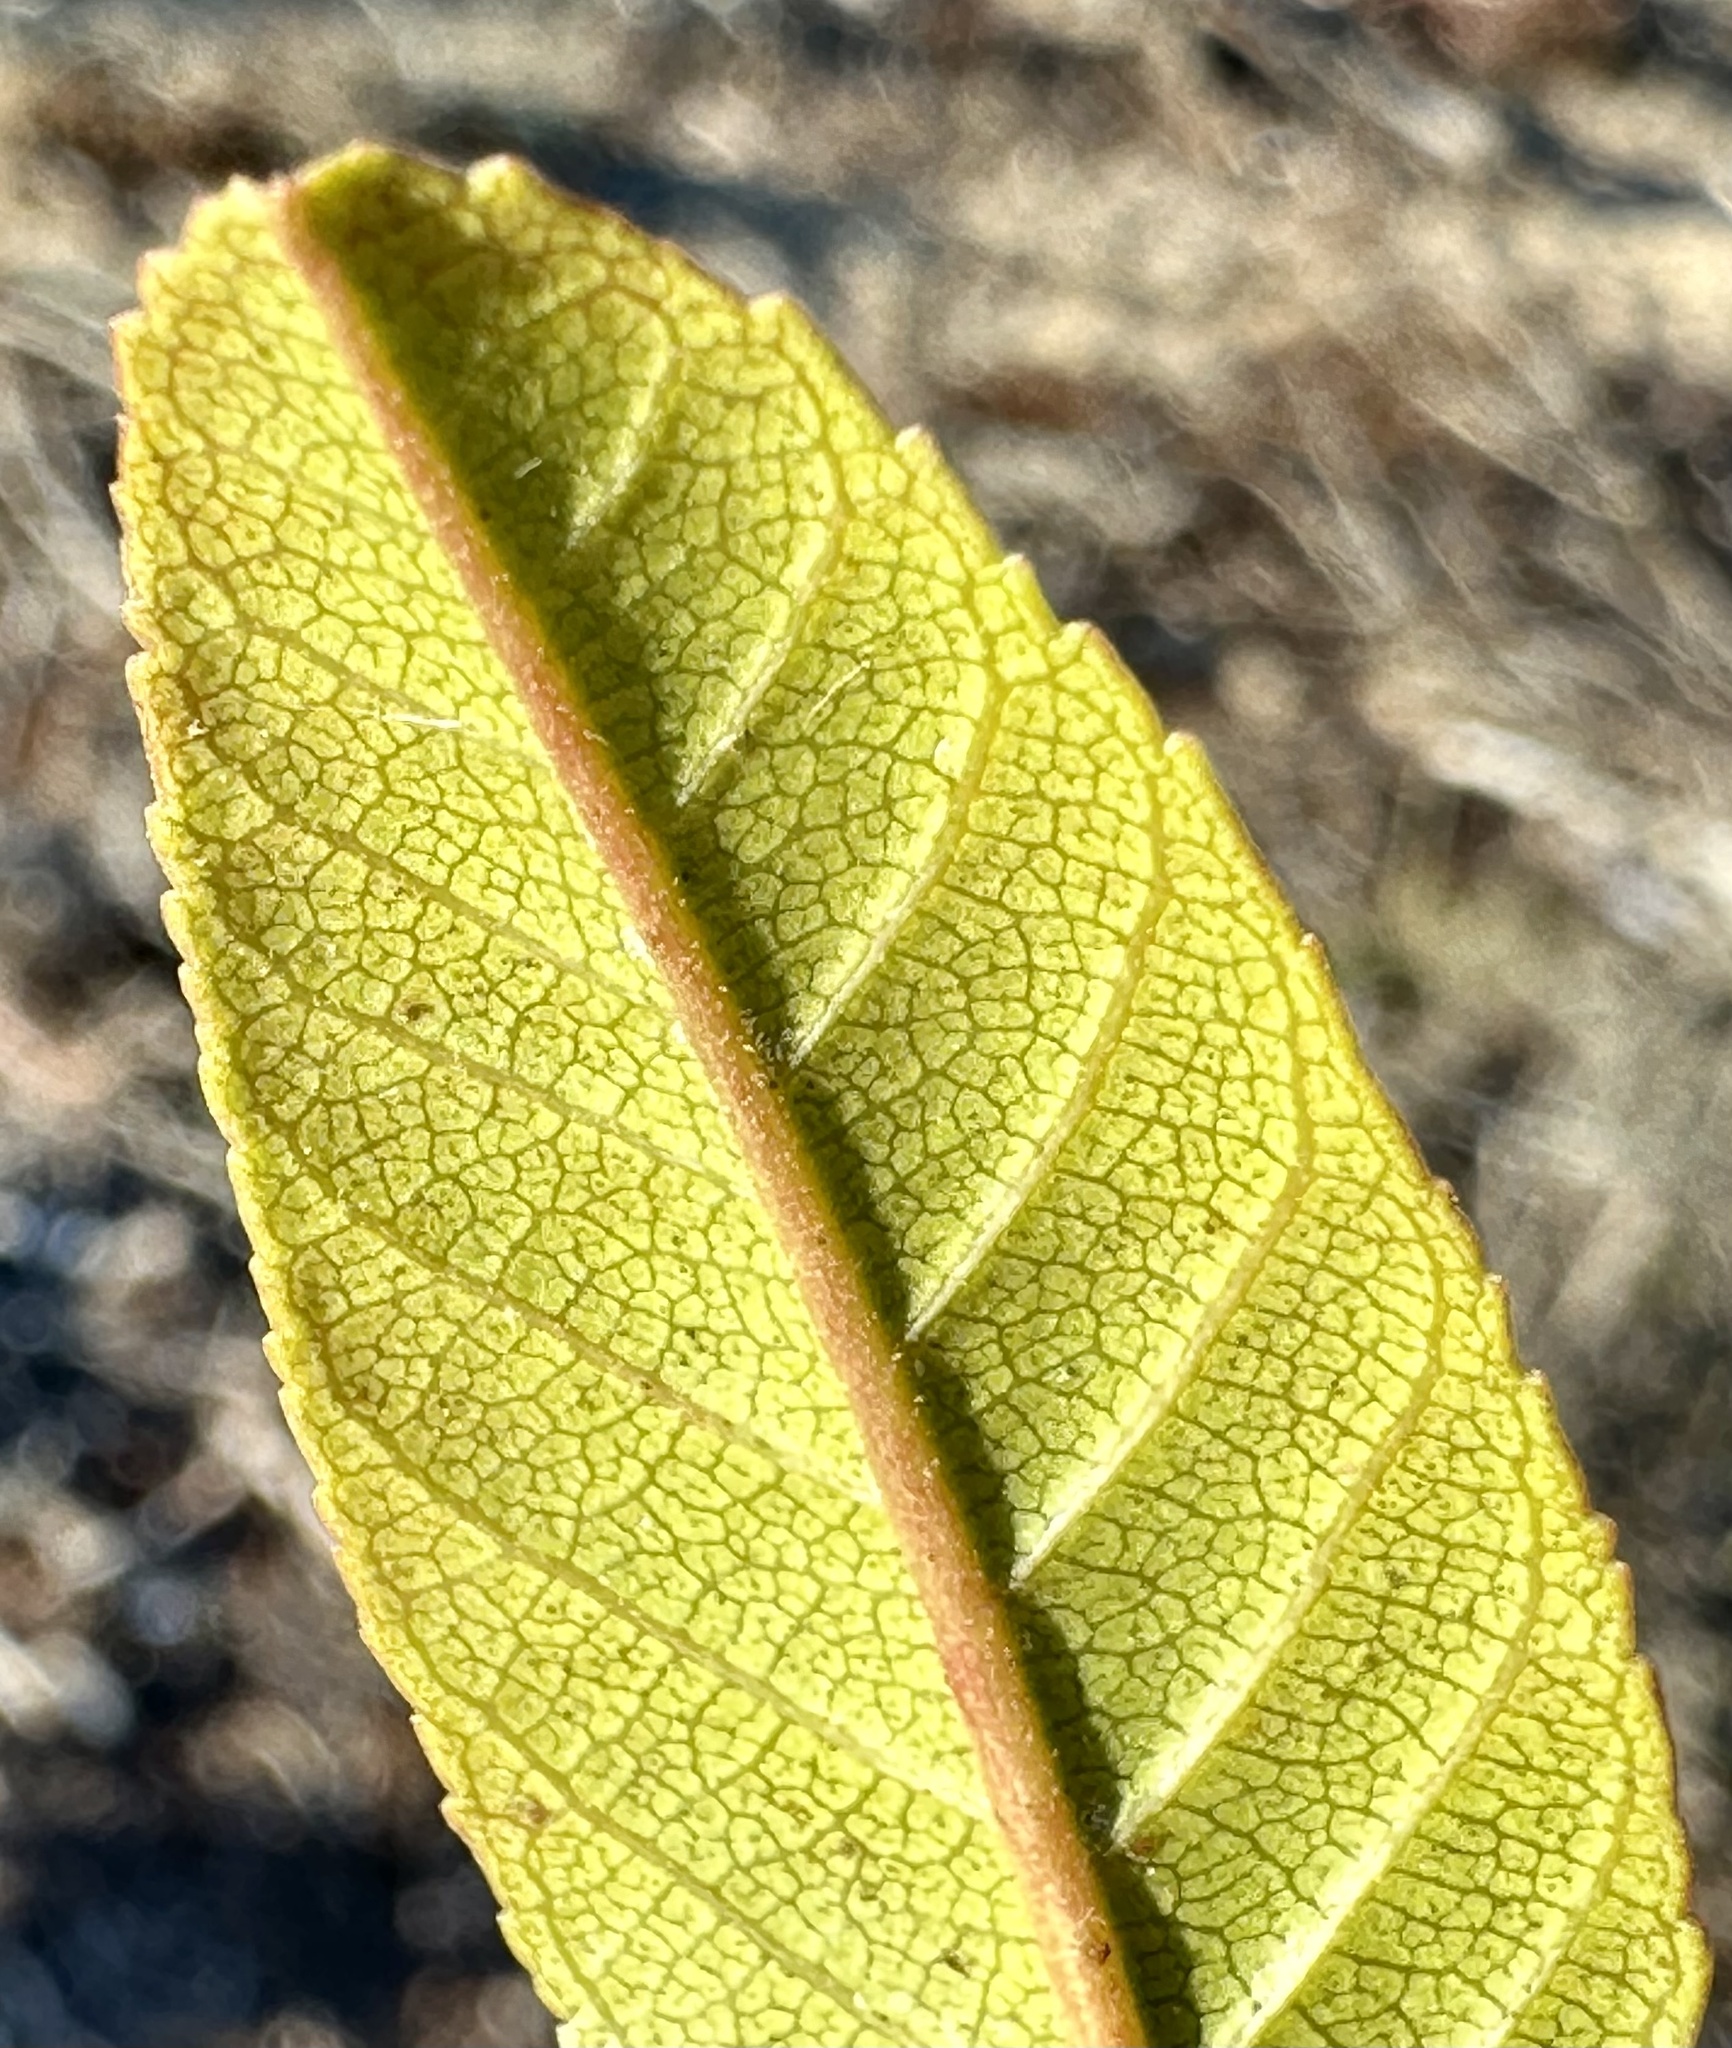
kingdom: Plantae
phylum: Tracheophyta
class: Magnoliopsida
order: Rosales
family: Rhamnaceae
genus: Frangula
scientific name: Frangula californica
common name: California buckthorn
